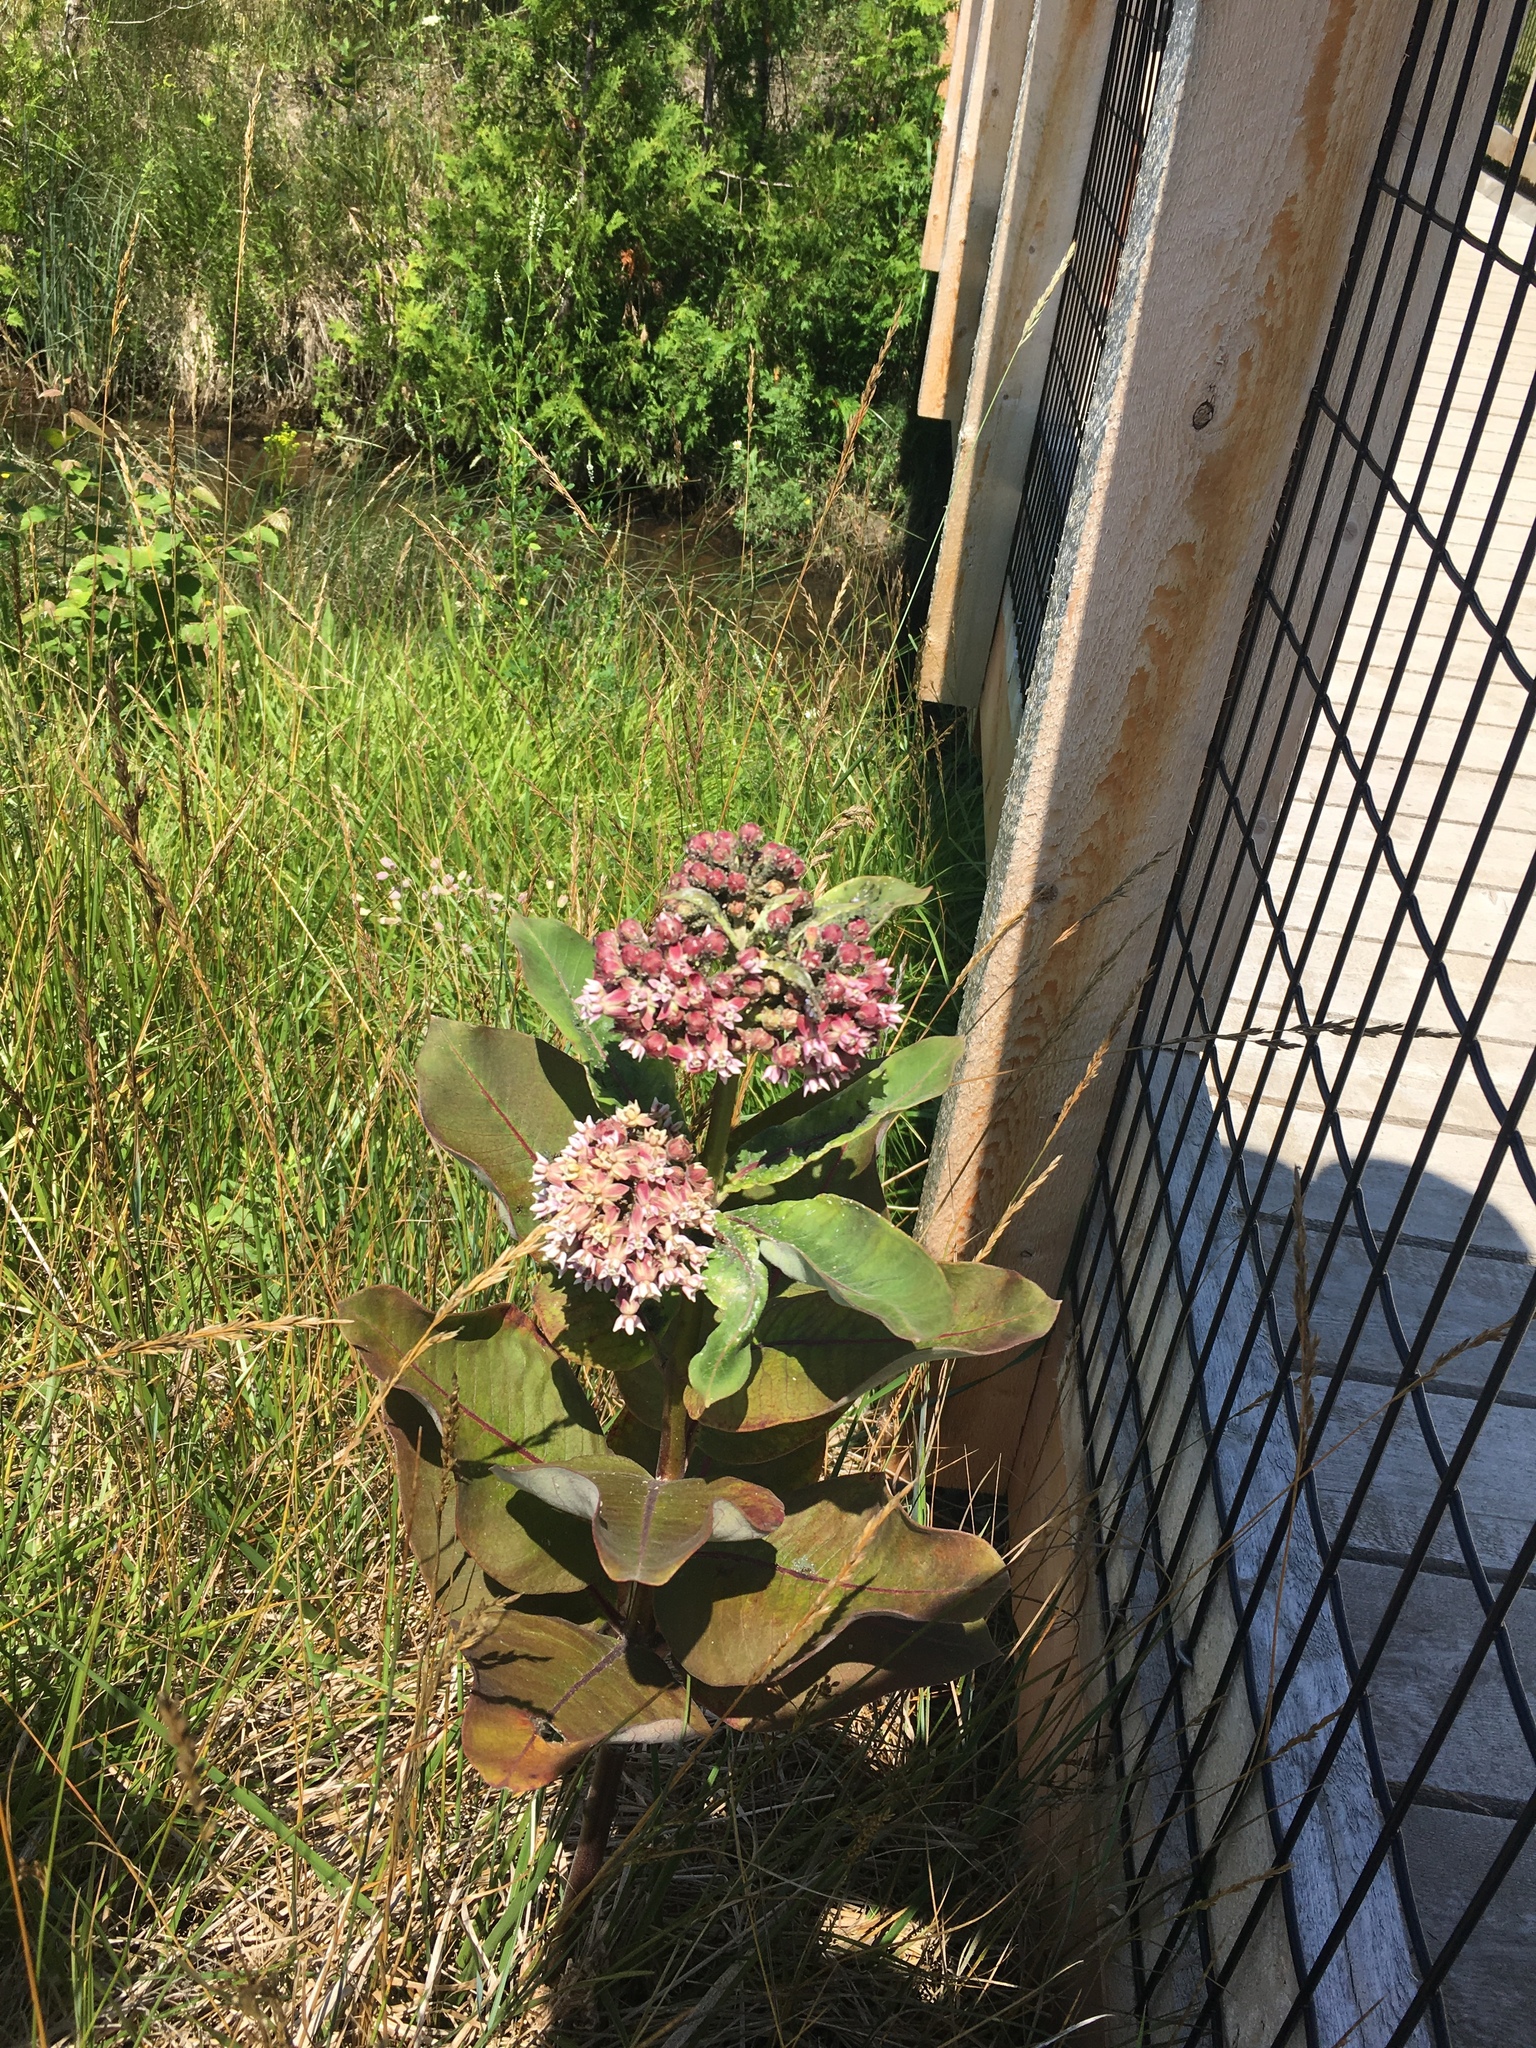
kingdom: Plantae
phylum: Tracheophyta
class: Magnoliopsida
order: Gentianales
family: Apocynaceae
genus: Asclepias
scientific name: Asclepias syriaca
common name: Common milkweed
